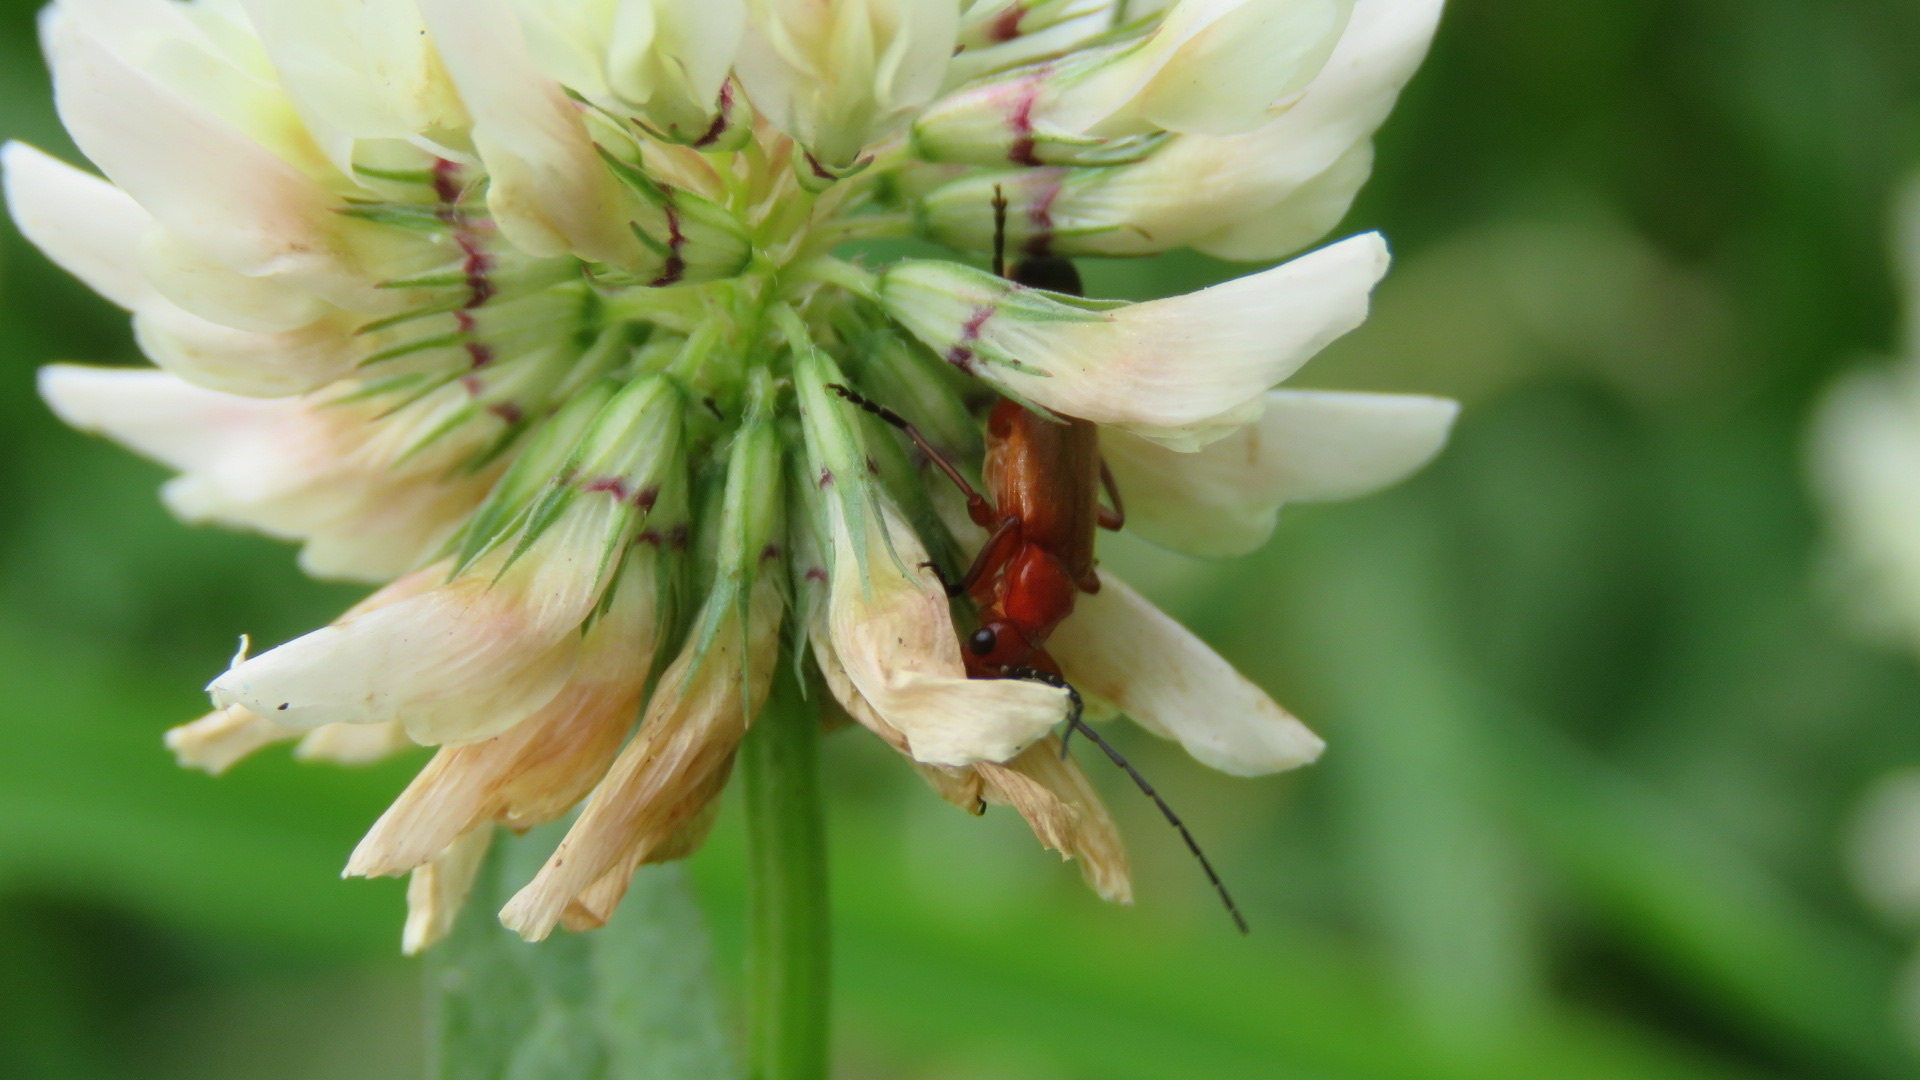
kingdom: Animalia
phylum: Arthropoda
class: Insecta
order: Coleoptera
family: Cantharidae
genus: Rhagonycha
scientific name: Rhagonycha fulva
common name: Common red soldier beetle
